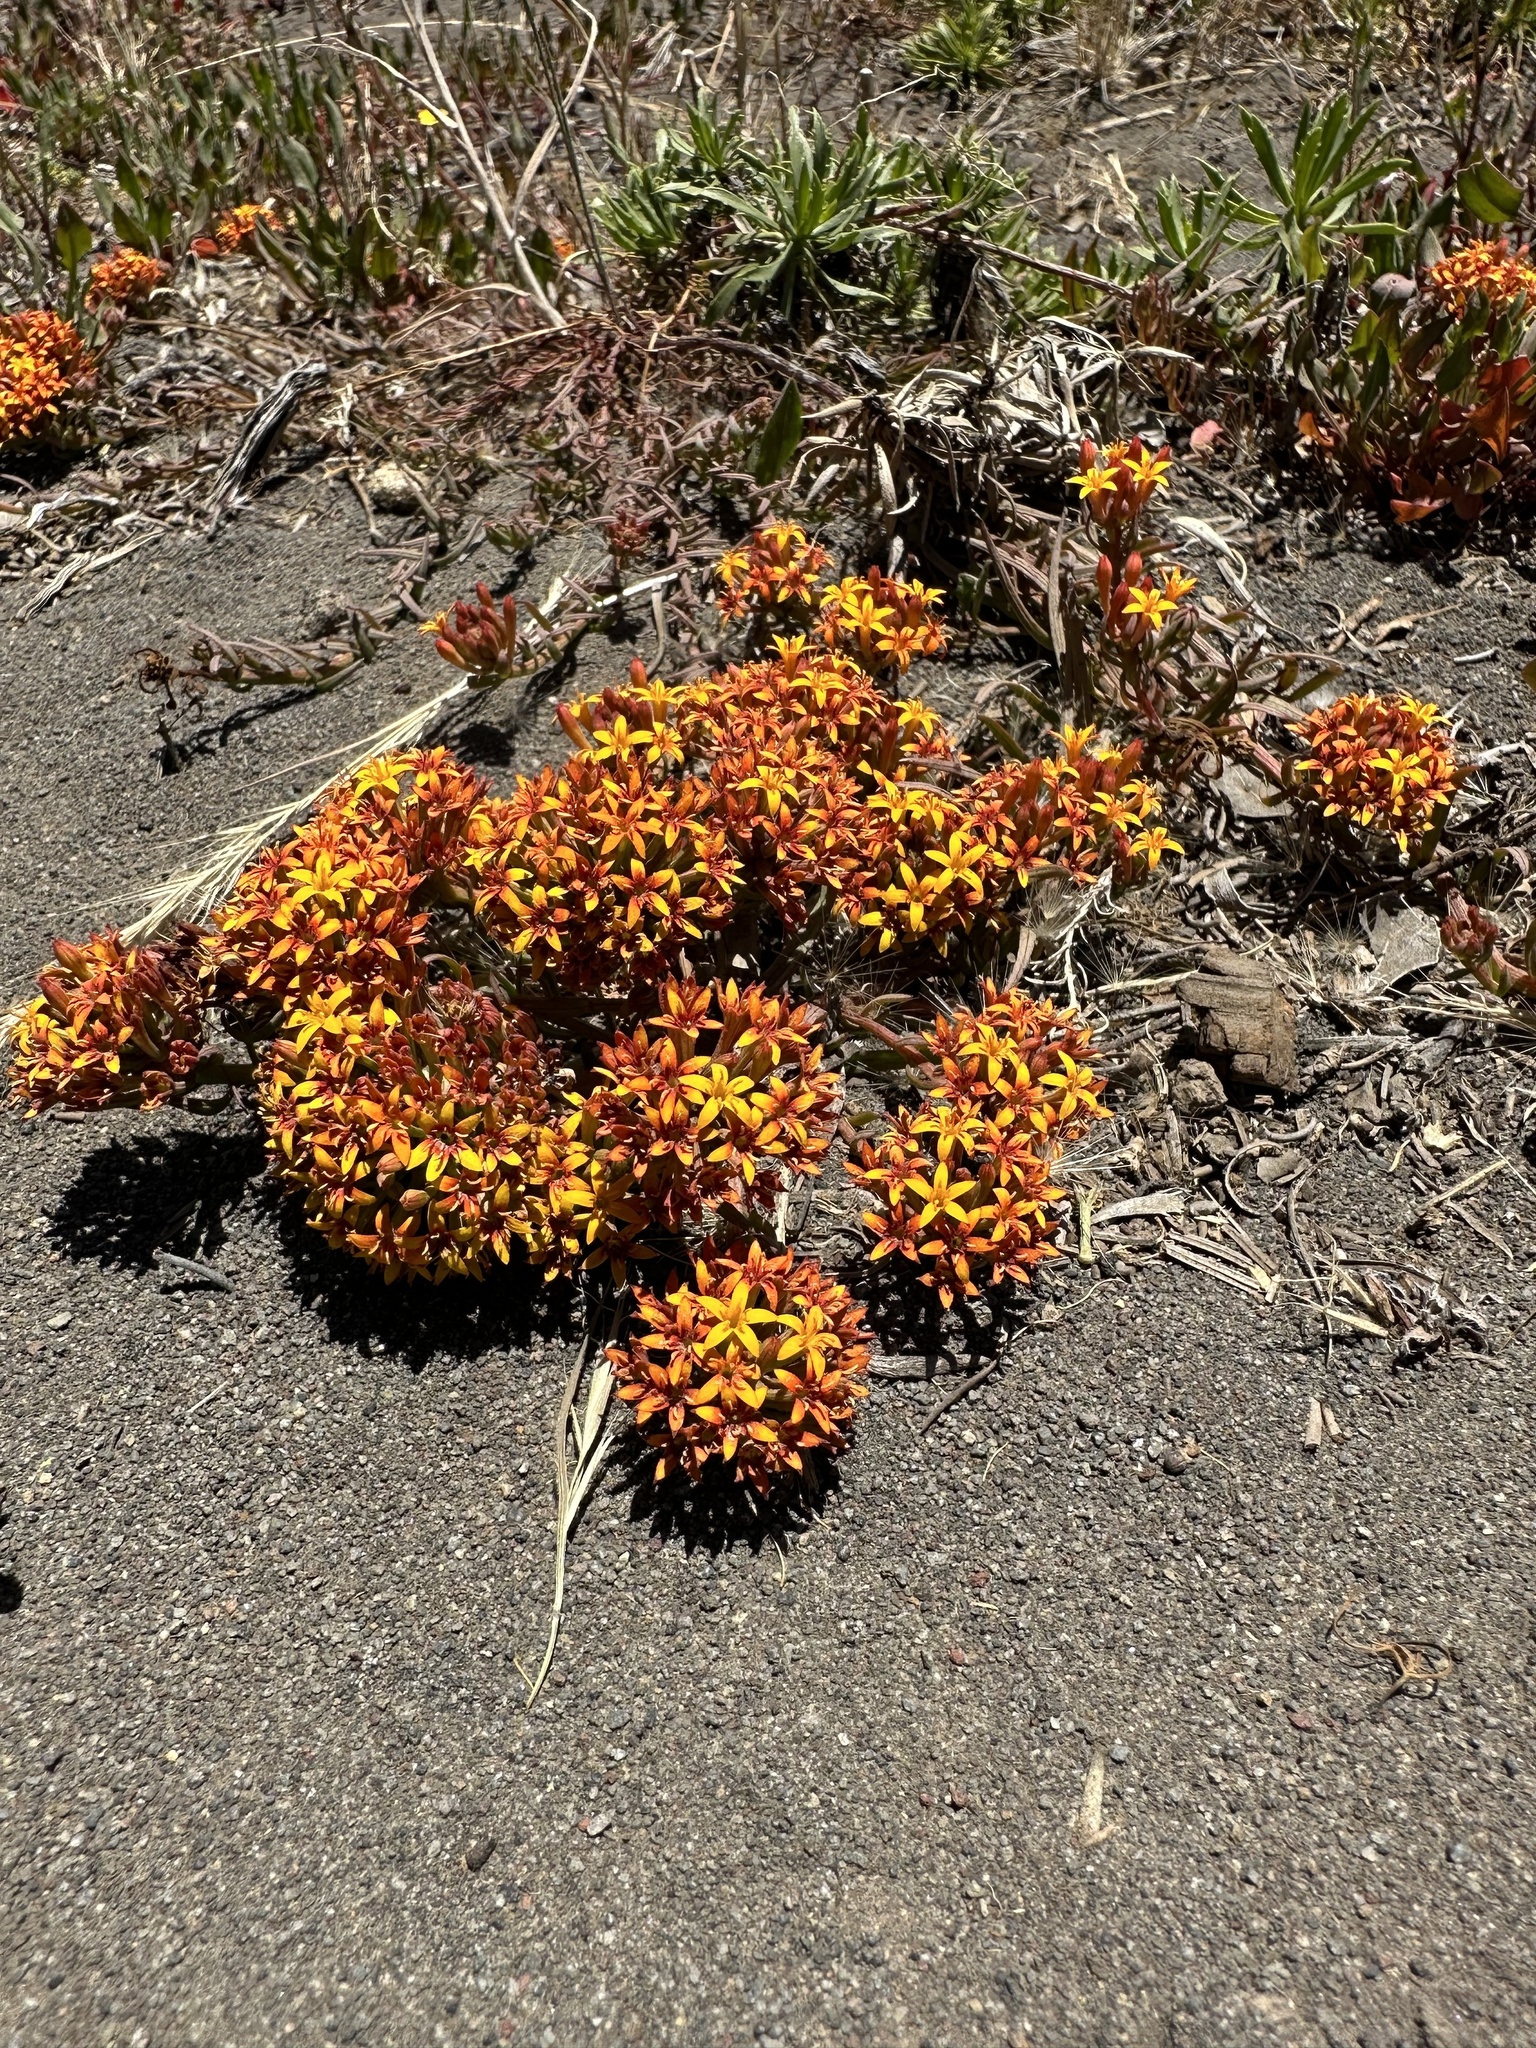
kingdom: Plantae
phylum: Tracheophyta
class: Magnoliopsida
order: Santalales
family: Schoepfiaceae
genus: Quinchamalium
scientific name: Quinchamalium chilense
